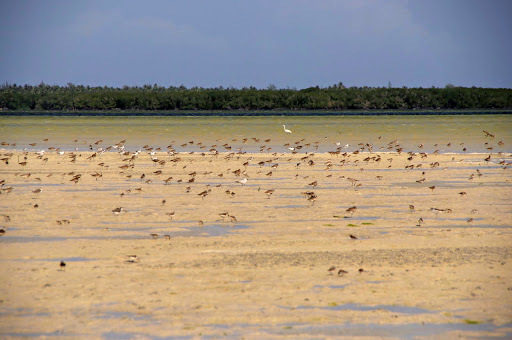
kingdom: Animalia
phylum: Chordata
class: Aves
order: Charadriiformes
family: Laridae
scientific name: Laridae
